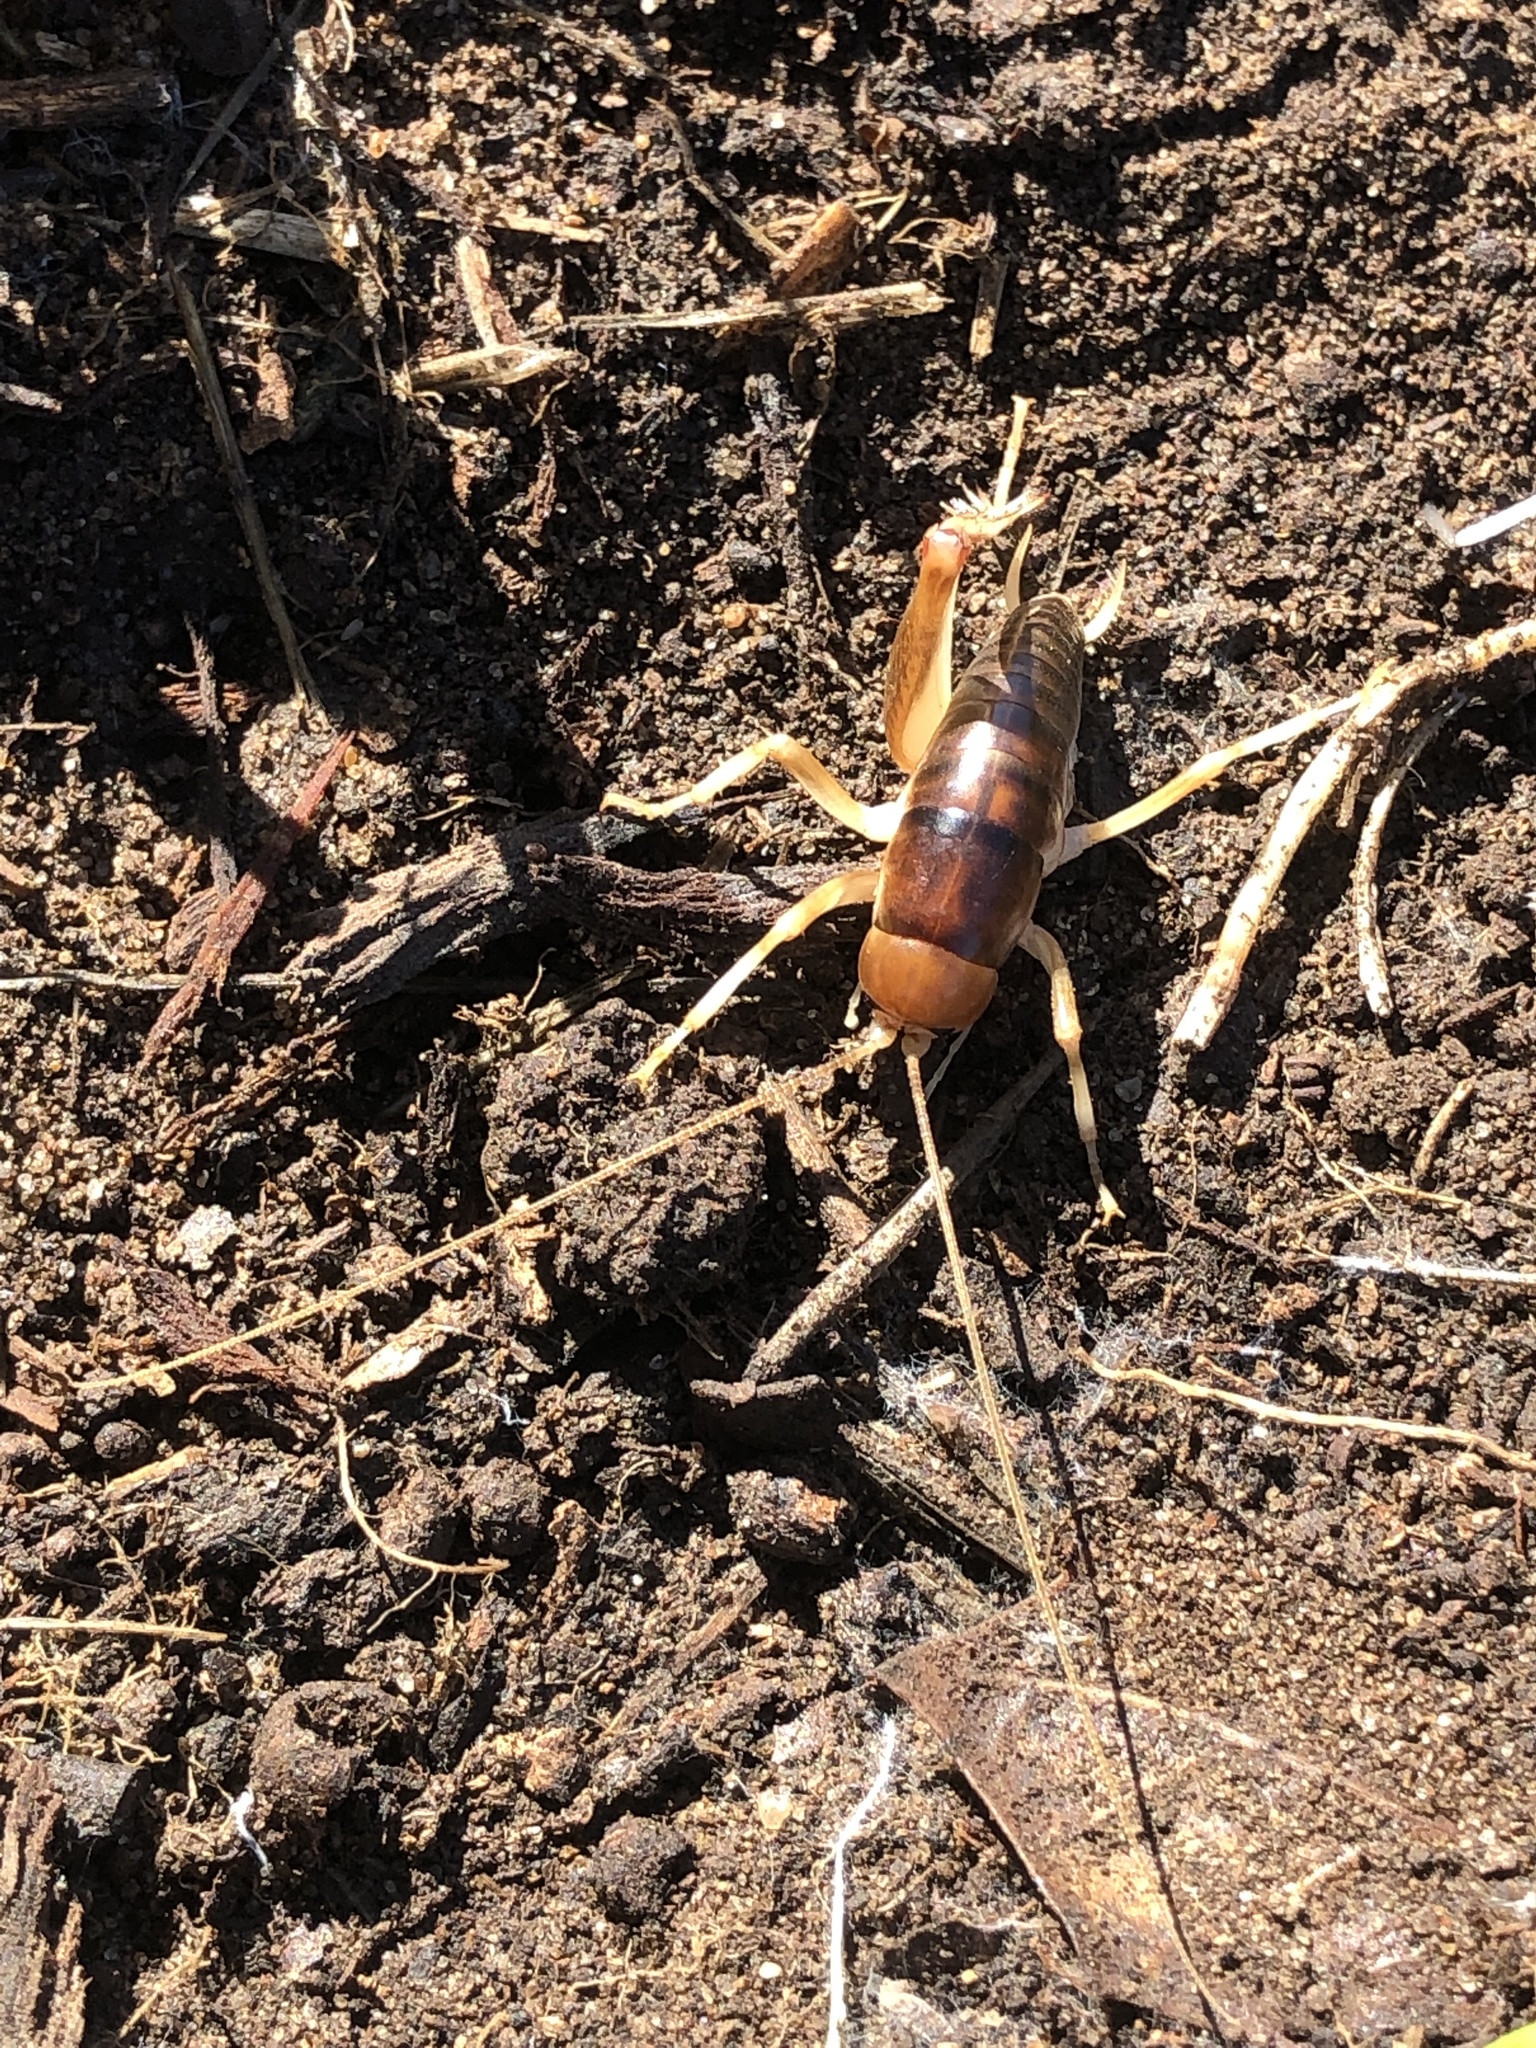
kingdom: Animalia
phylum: Arthropoda
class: Insecta
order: Orthoptera
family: Rhaphidophoridae
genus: Ceuthophilus
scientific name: Ceuthophilus californianus
